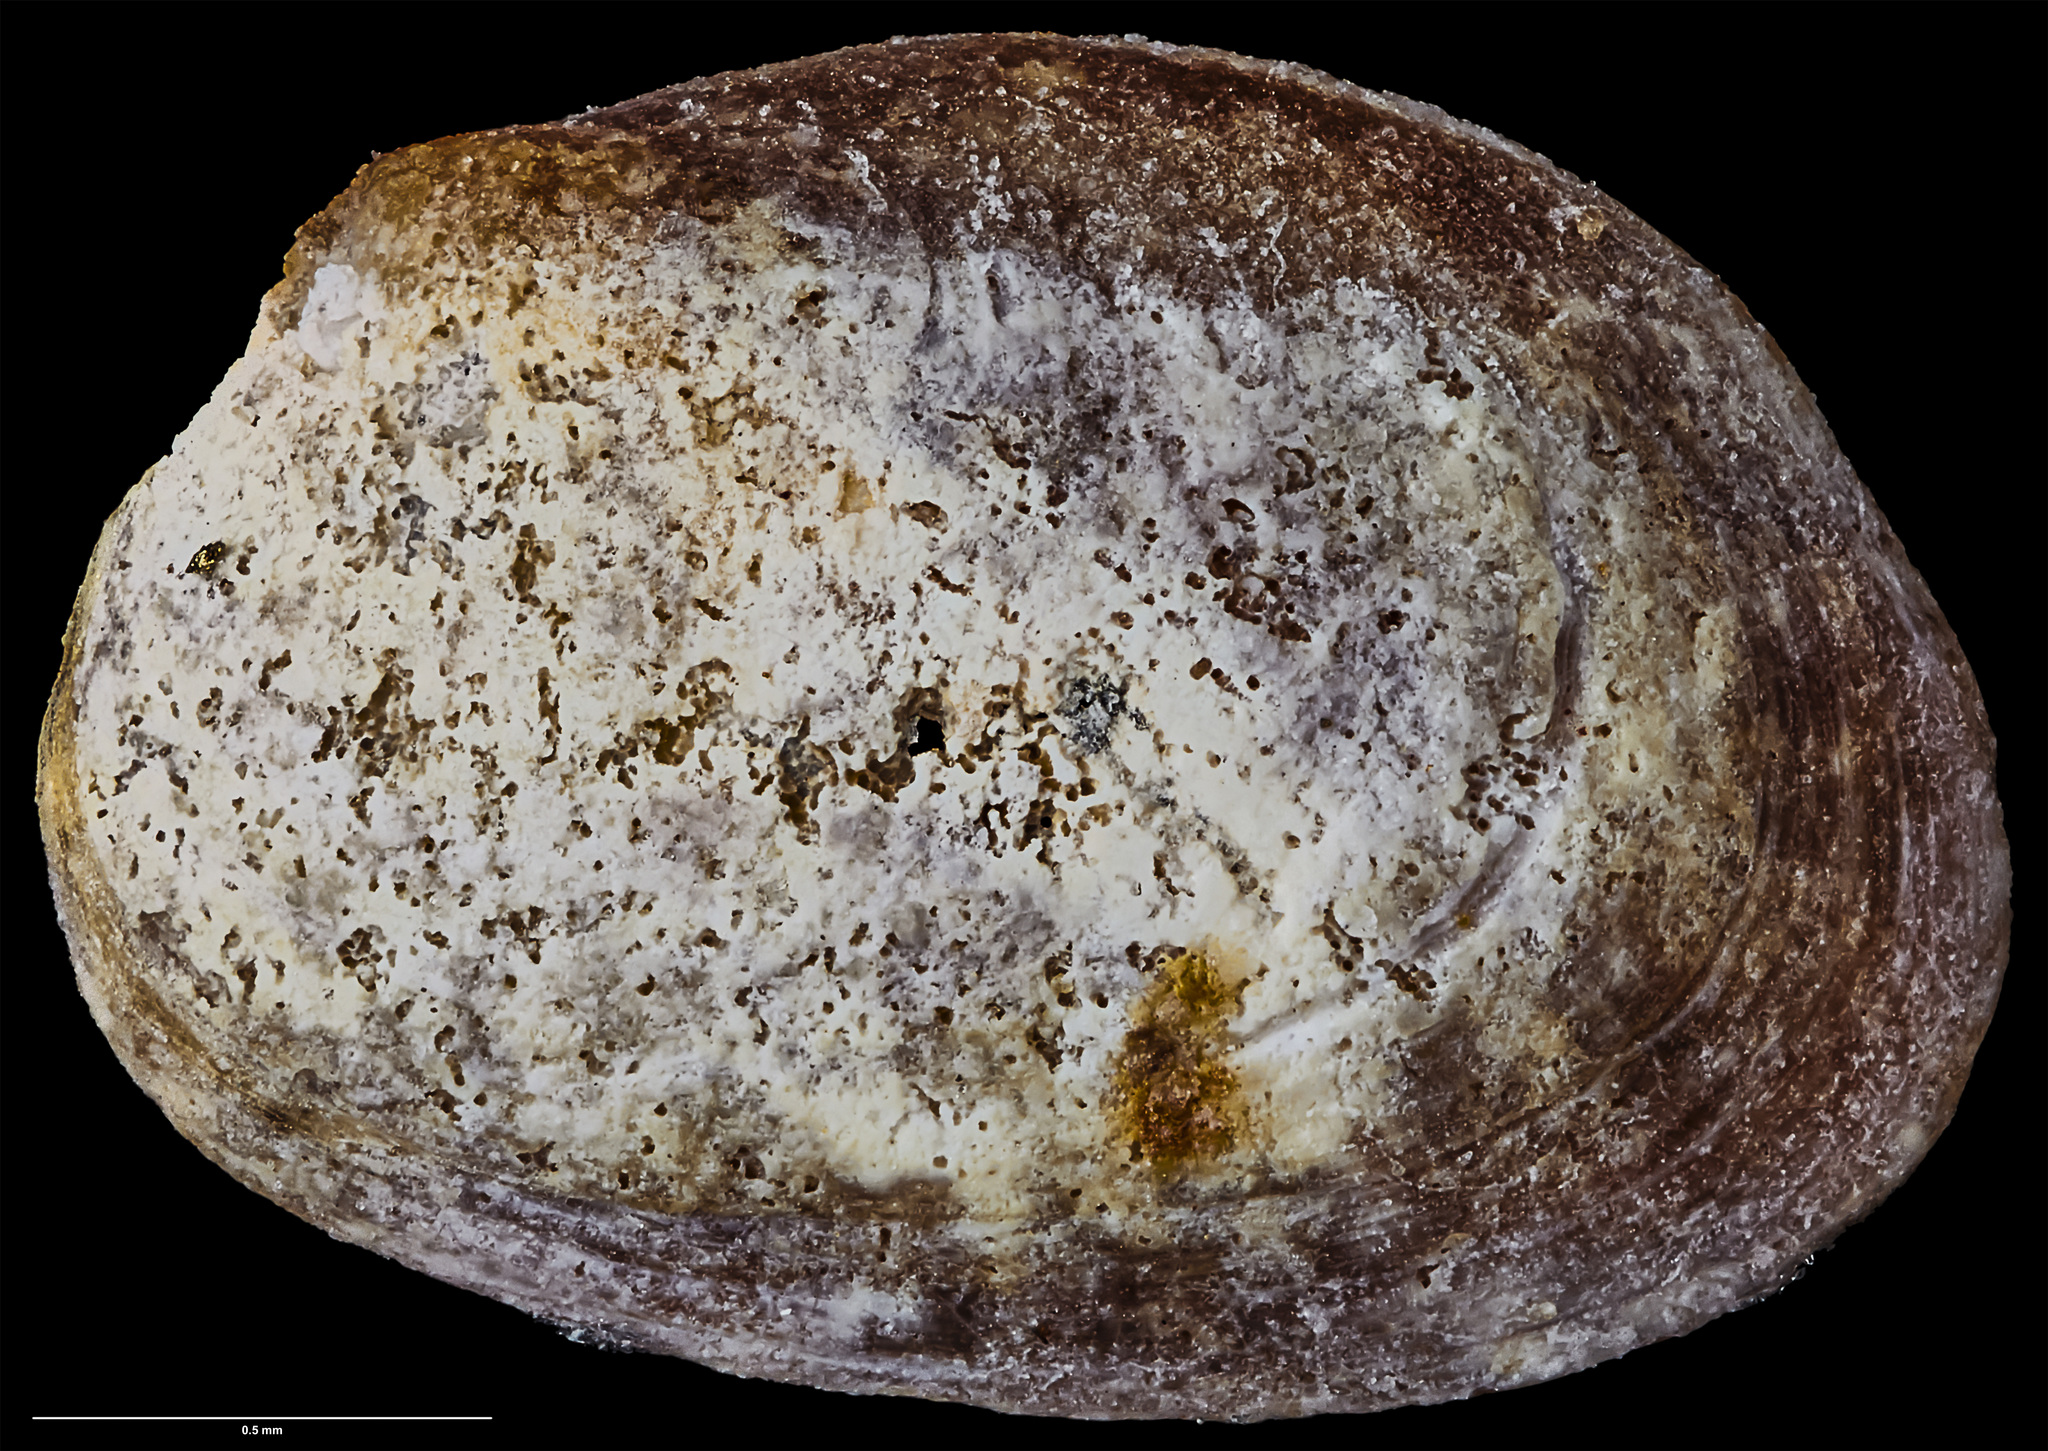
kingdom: Animalia
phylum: Mollusca
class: Bivalvia
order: Arcida
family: Philobryidae
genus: Lissarca
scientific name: Lissarca stewartiana
